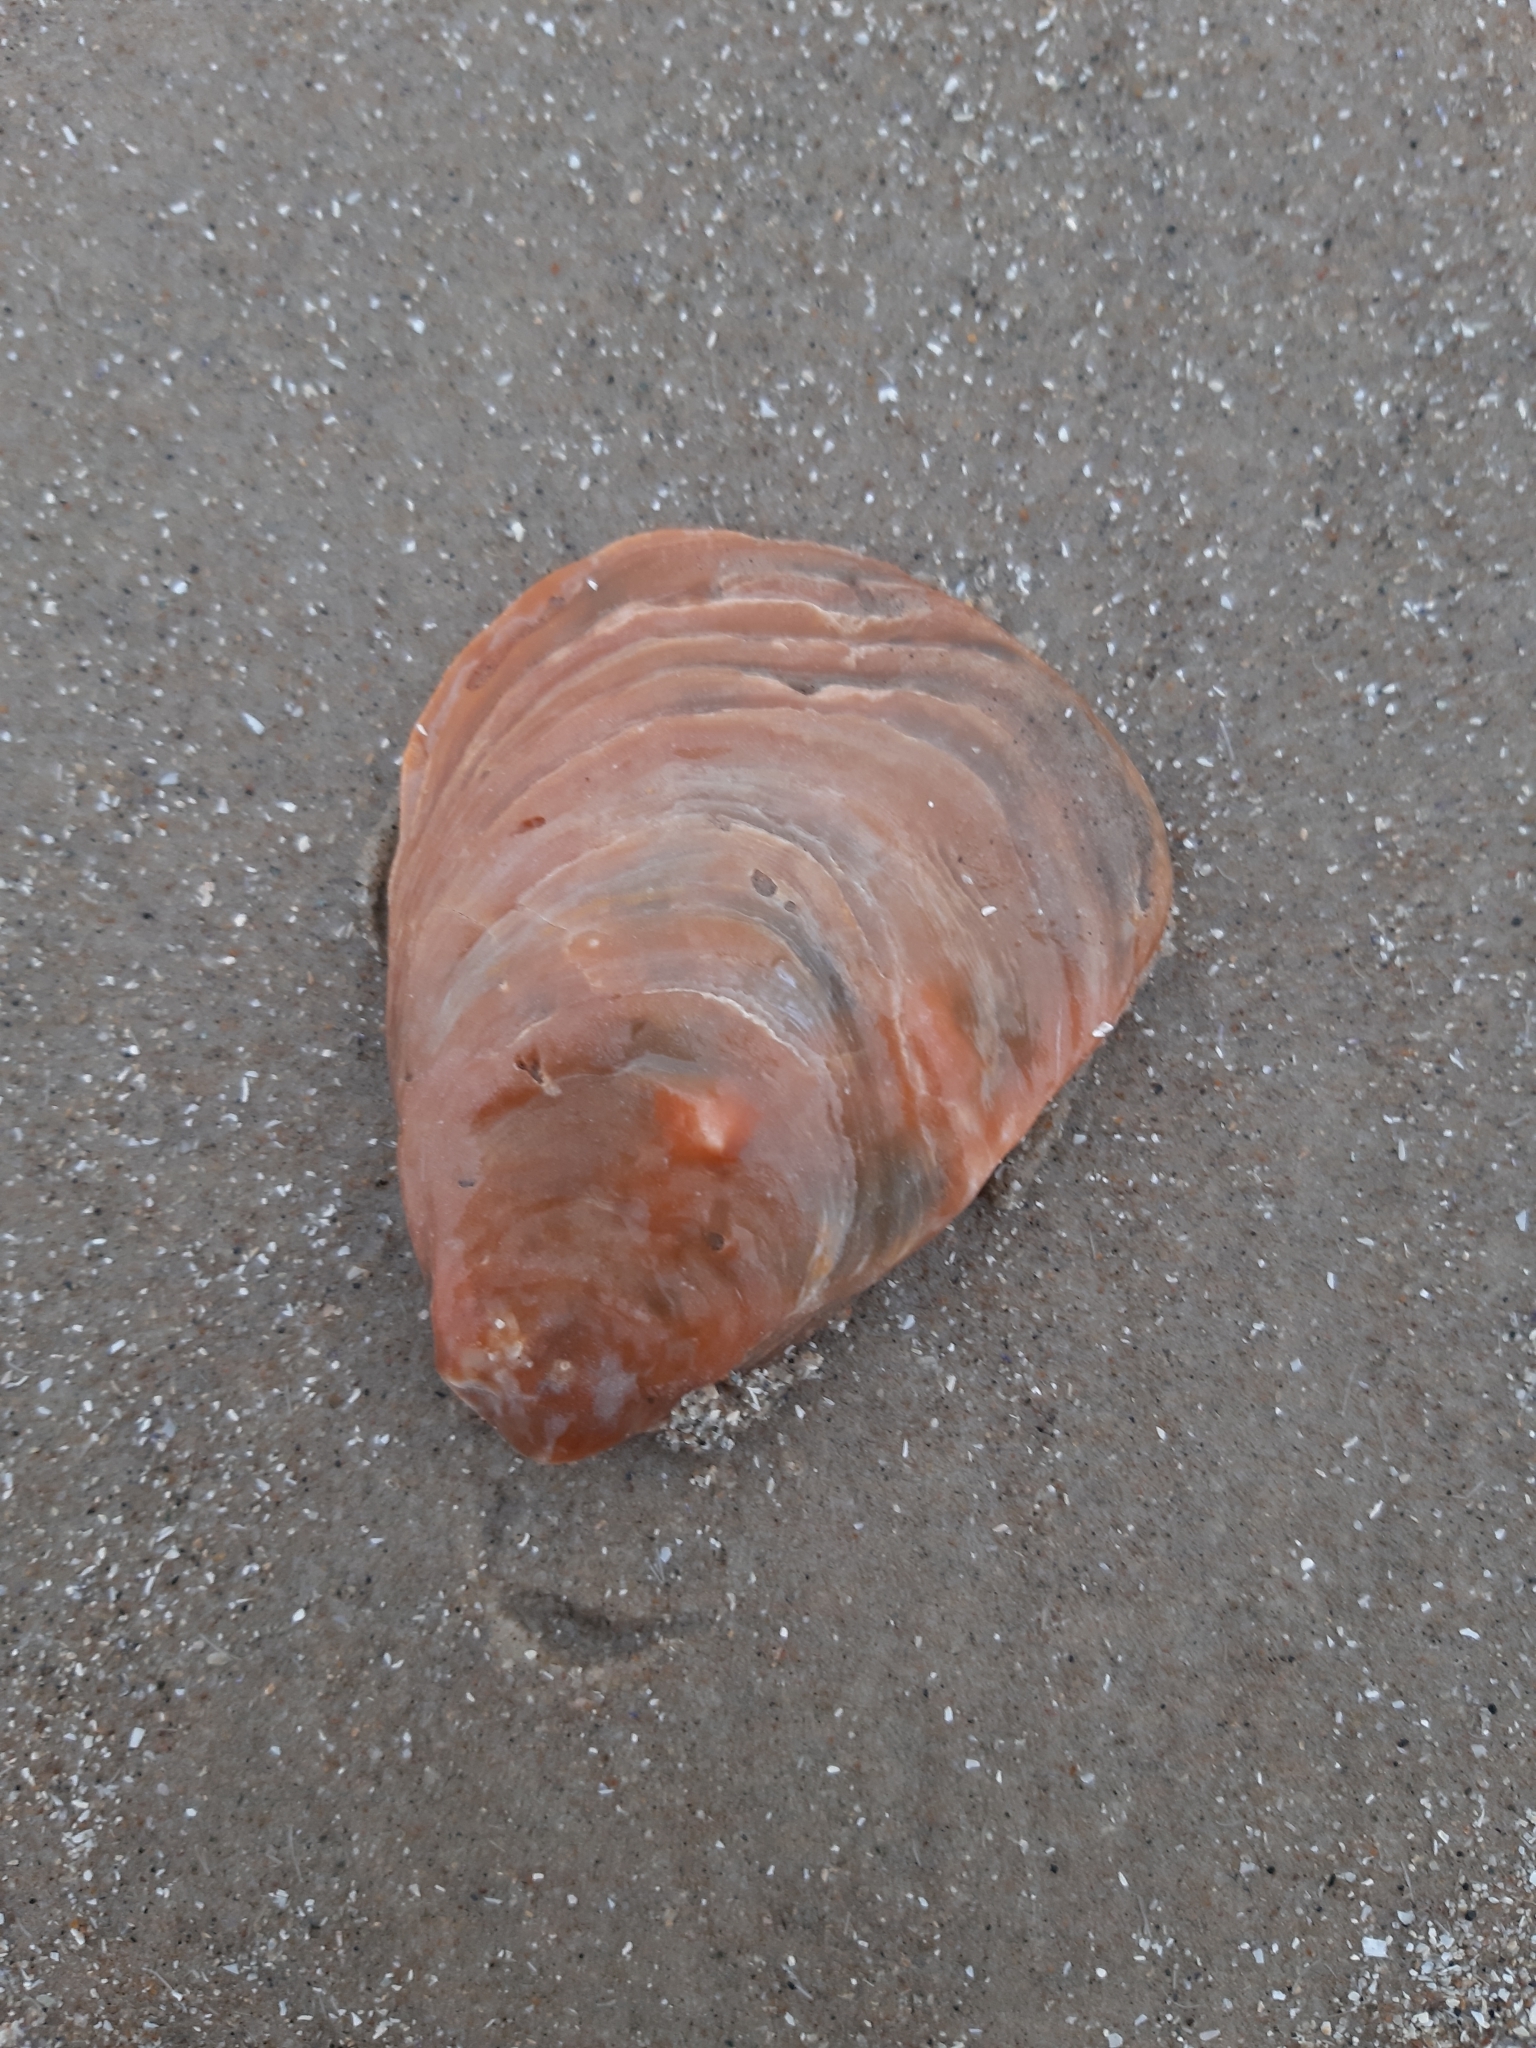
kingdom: Animalia
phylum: Mollusca
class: Bivalvia
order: Ostreida
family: Ostreidae
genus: Ostrea
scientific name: Ostrea edulis
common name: Flat oyster
